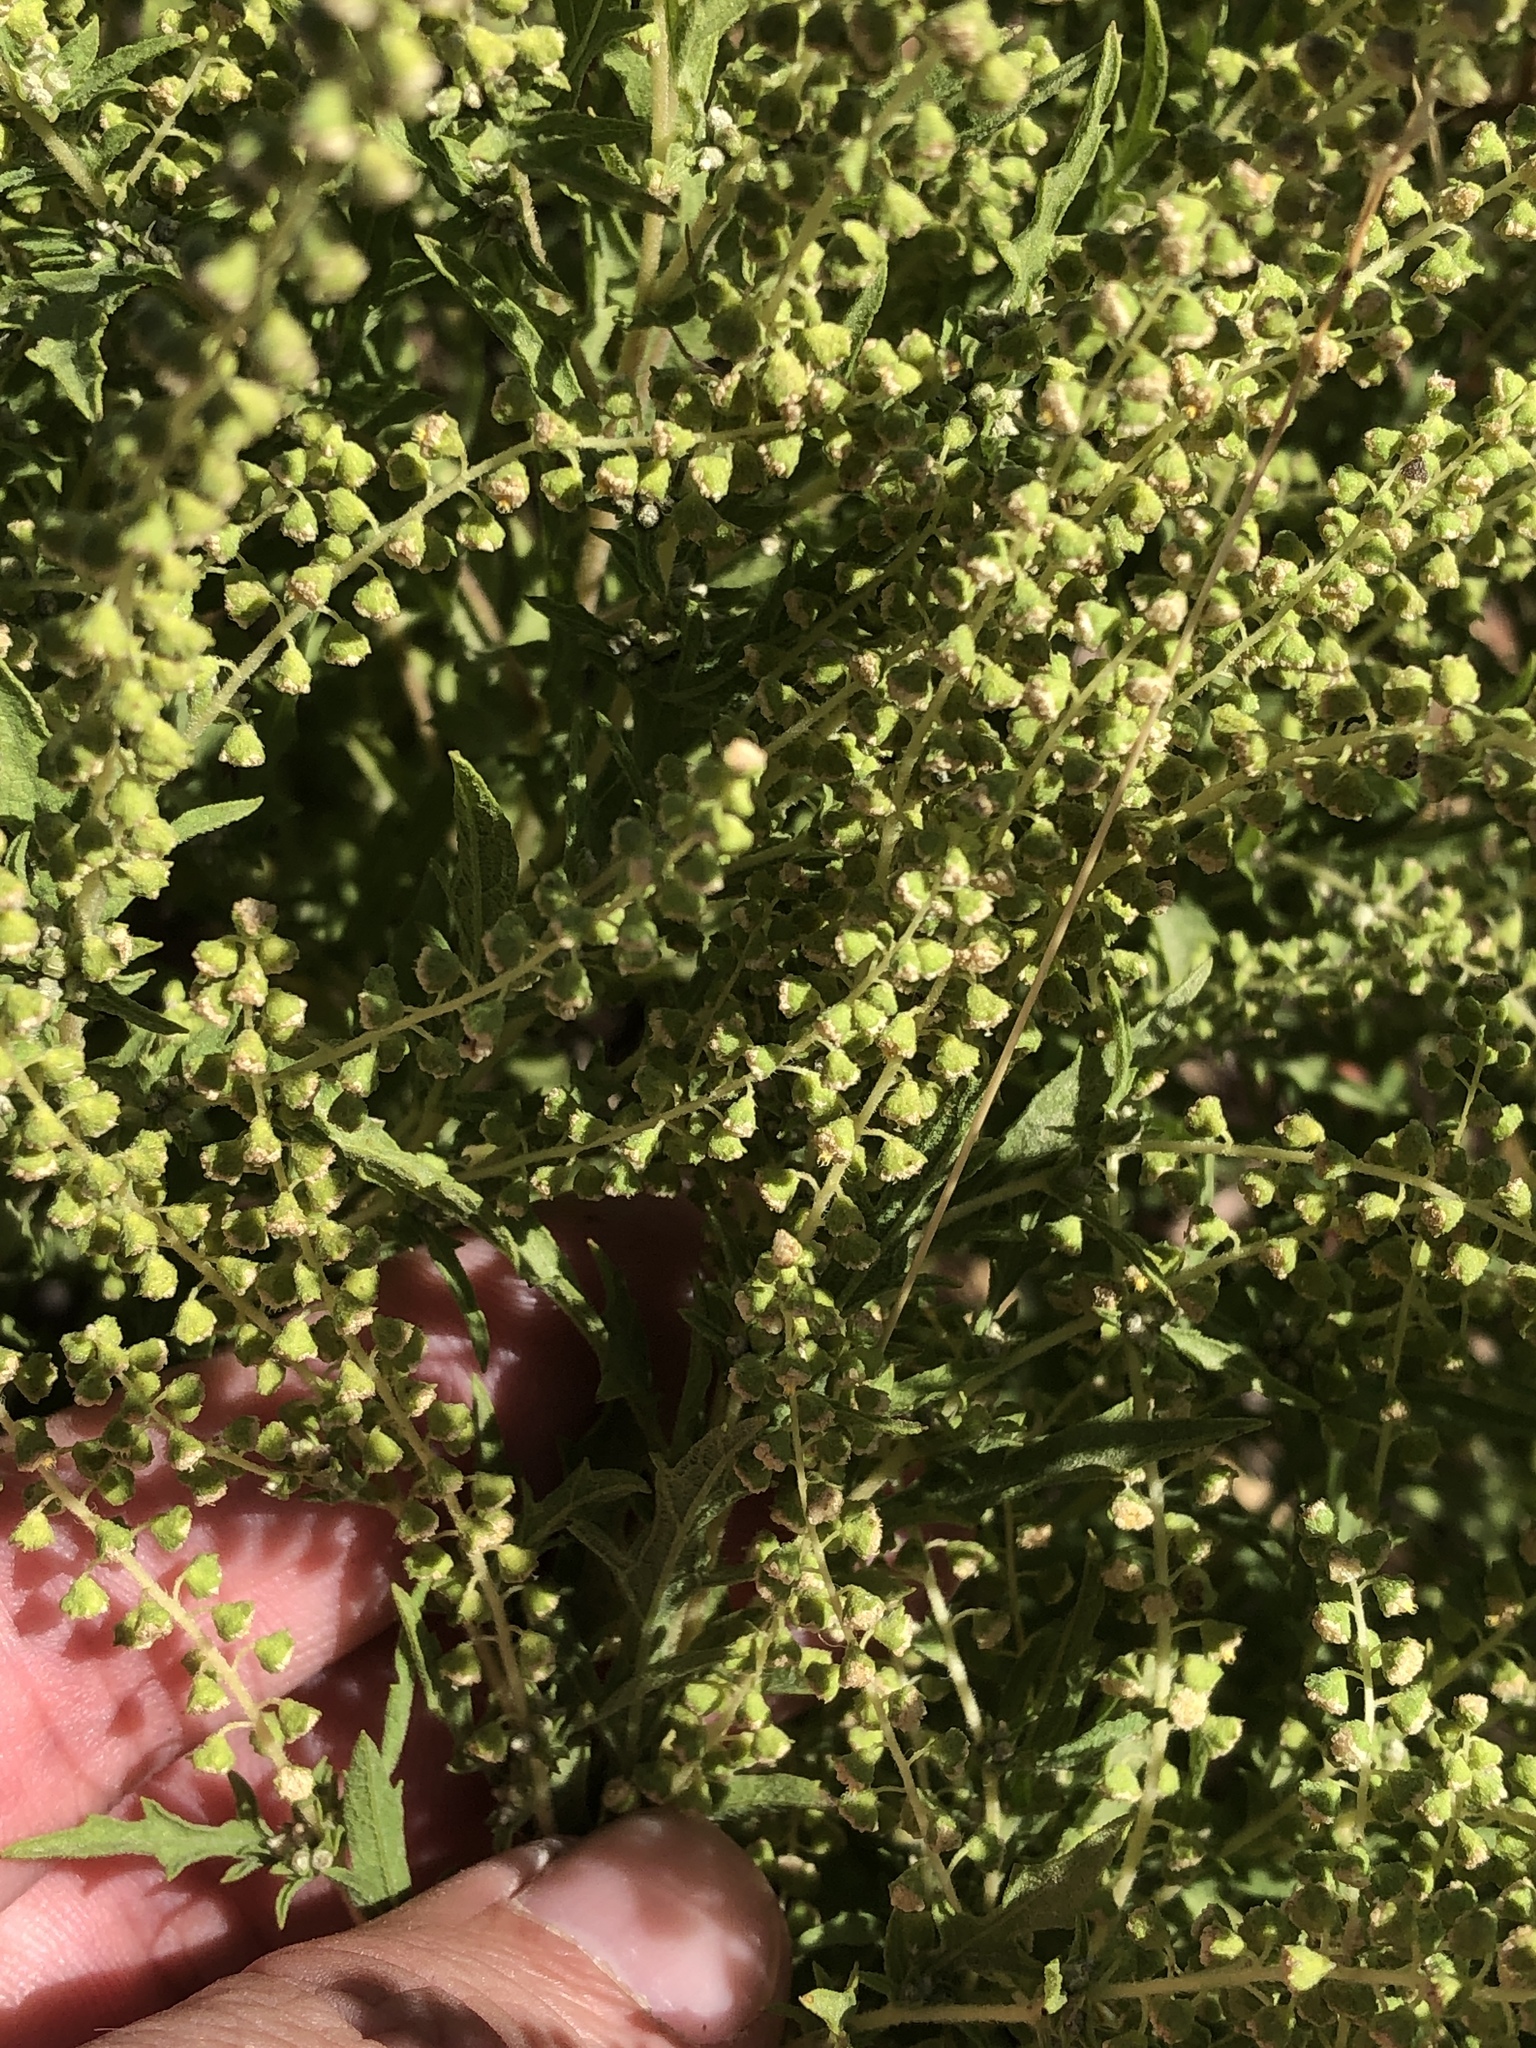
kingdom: Plantae
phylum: Tracheophyta
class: Magnoliopsida
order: Asterales
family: Asteraceae
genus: Ambrosia
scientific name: Ambrosia psilostachya
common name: Perennial ragweed
